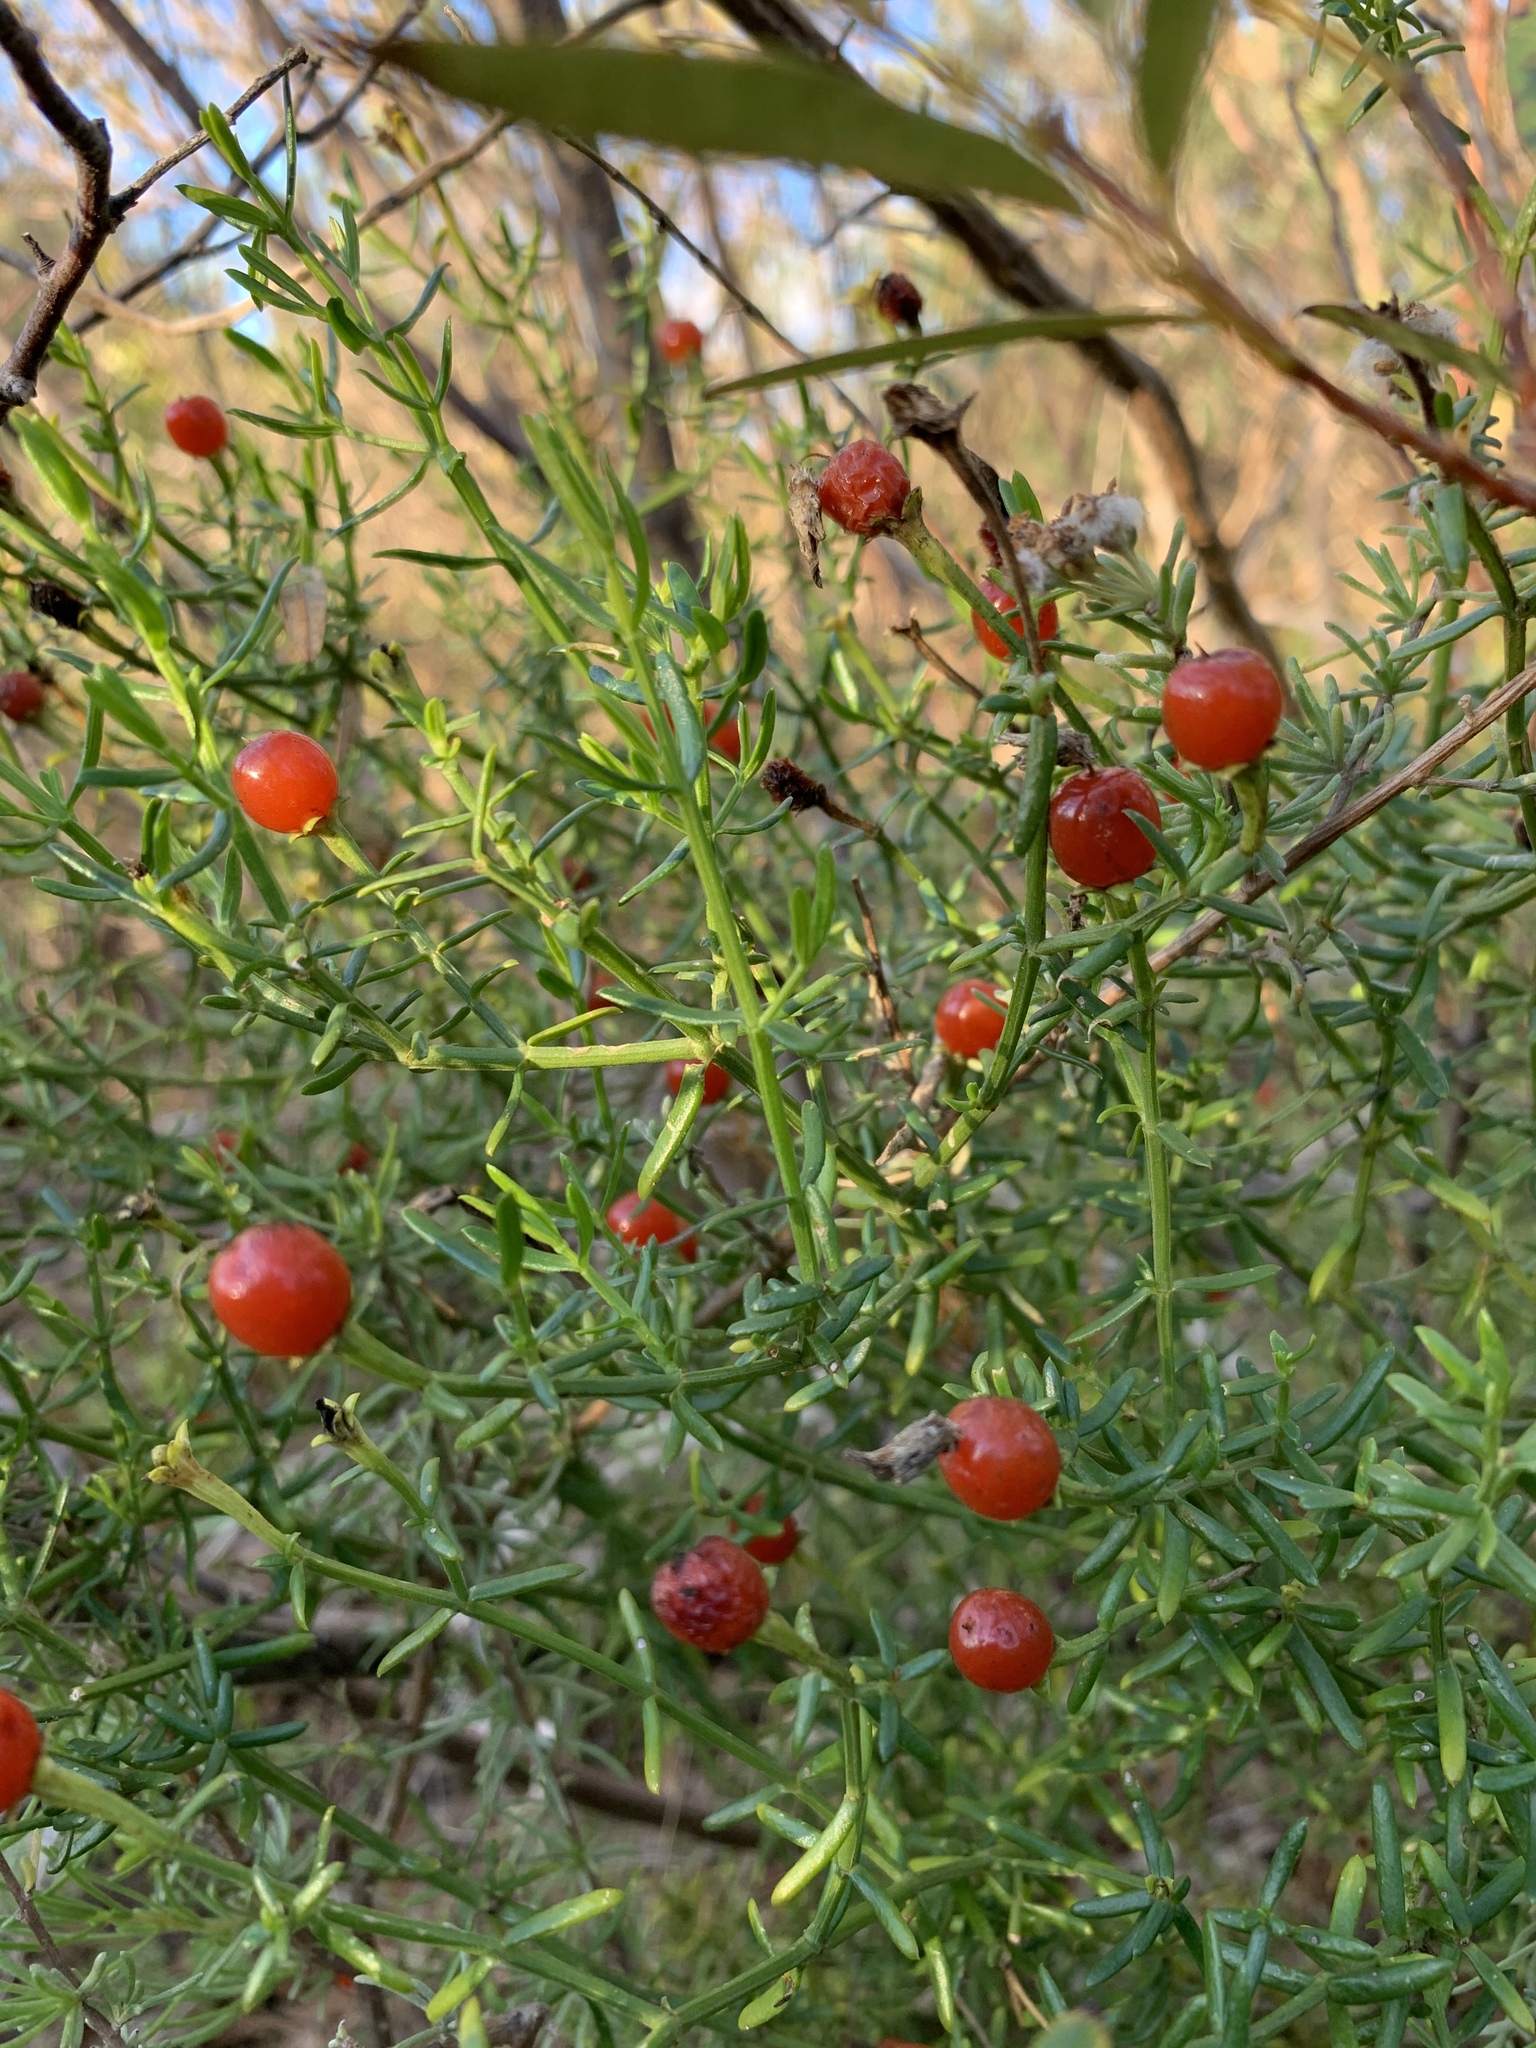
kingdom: Plantae
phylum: Tracheophyta
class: Magnoliopsida
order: Gentianales
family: Gentianaceae
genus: Chironia
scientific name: Chironia baccifera
